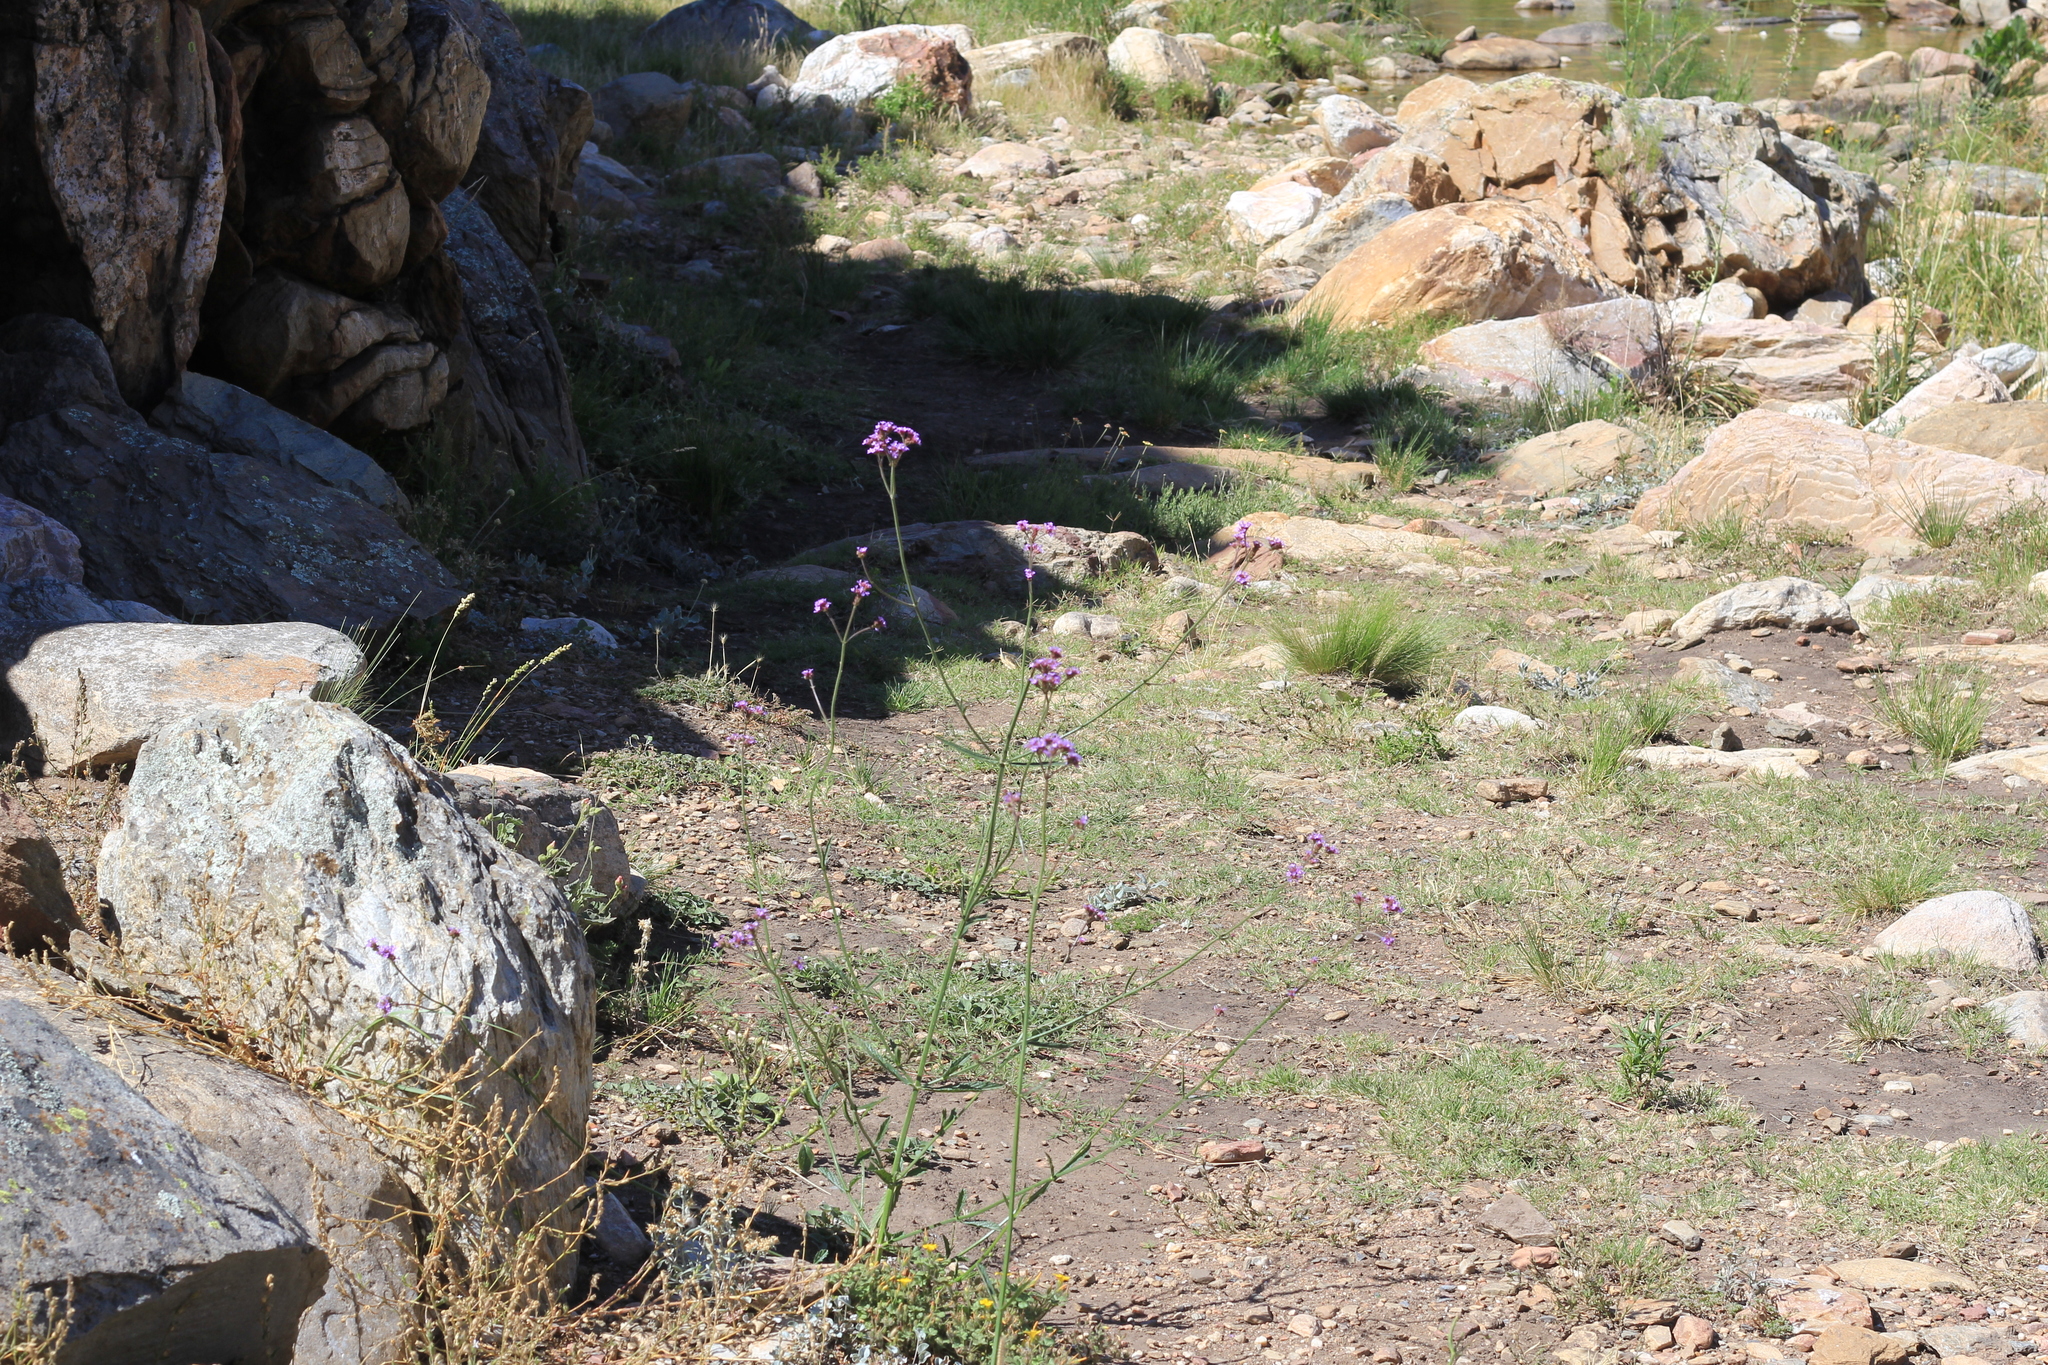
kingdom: Plantae
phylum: Tracheophyta
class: Magnoliopsida
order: Lamiales
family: Verbenaceae
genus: Verbena
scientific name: Verbena bonariensis
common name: Purpletop vervain
